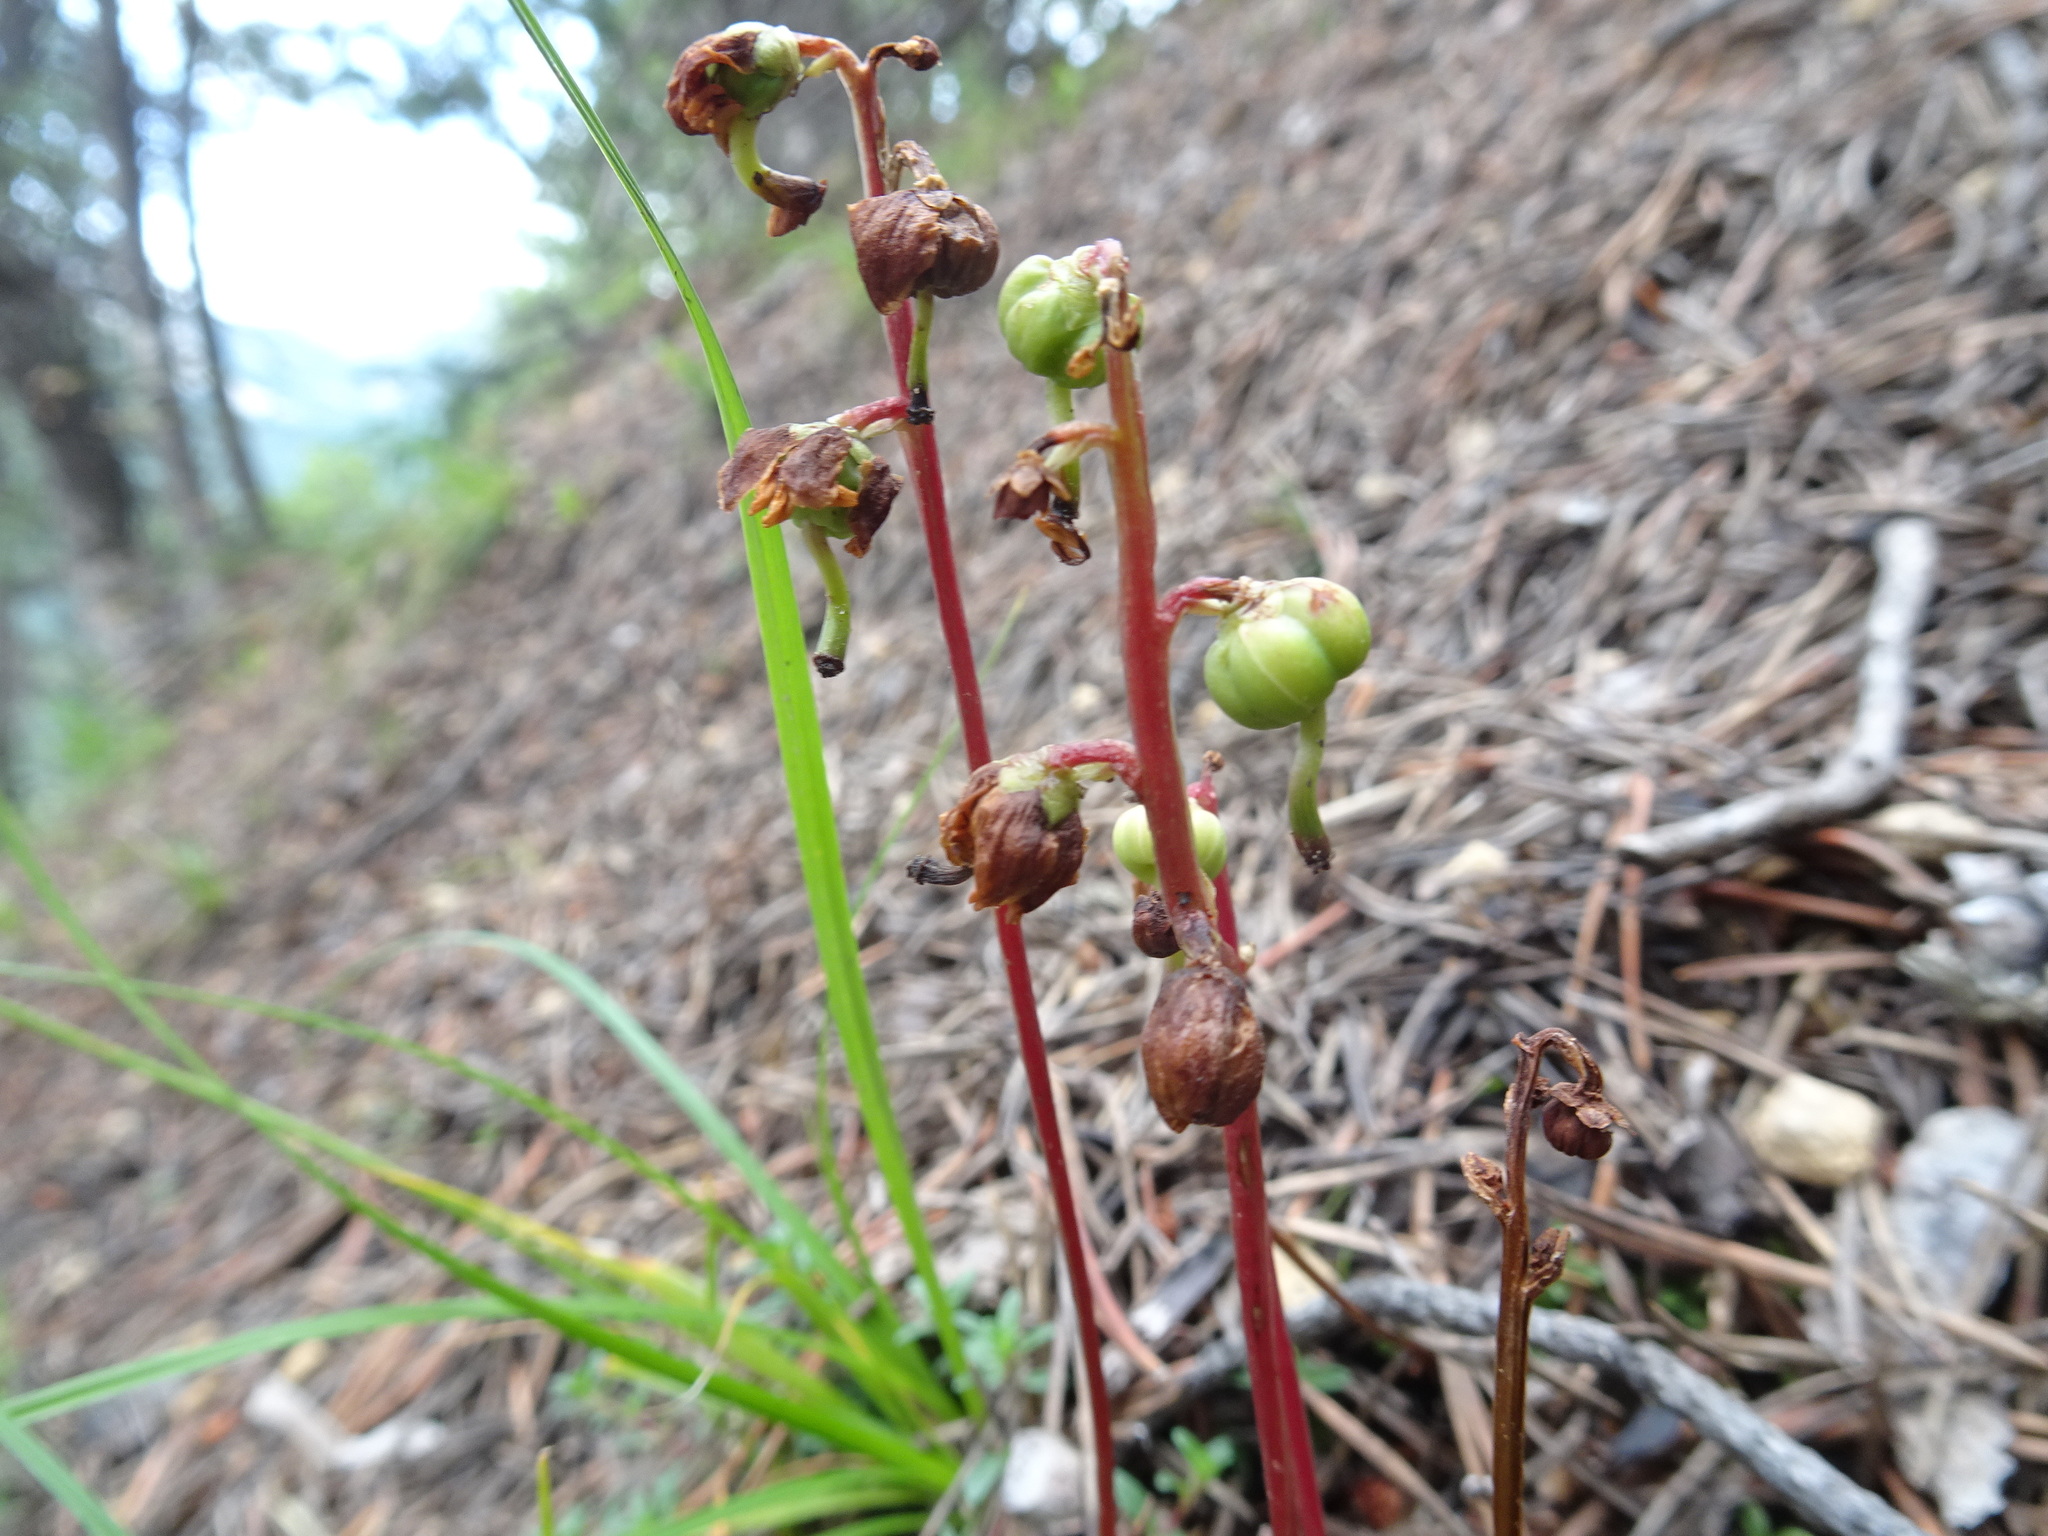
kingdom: Plantae
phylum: Tracheophyta
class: Magnoliopsida
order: Ericales
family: Ericaceae
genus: Pyrola
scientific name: Pyrola chlorantha
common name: Green wintergreen
